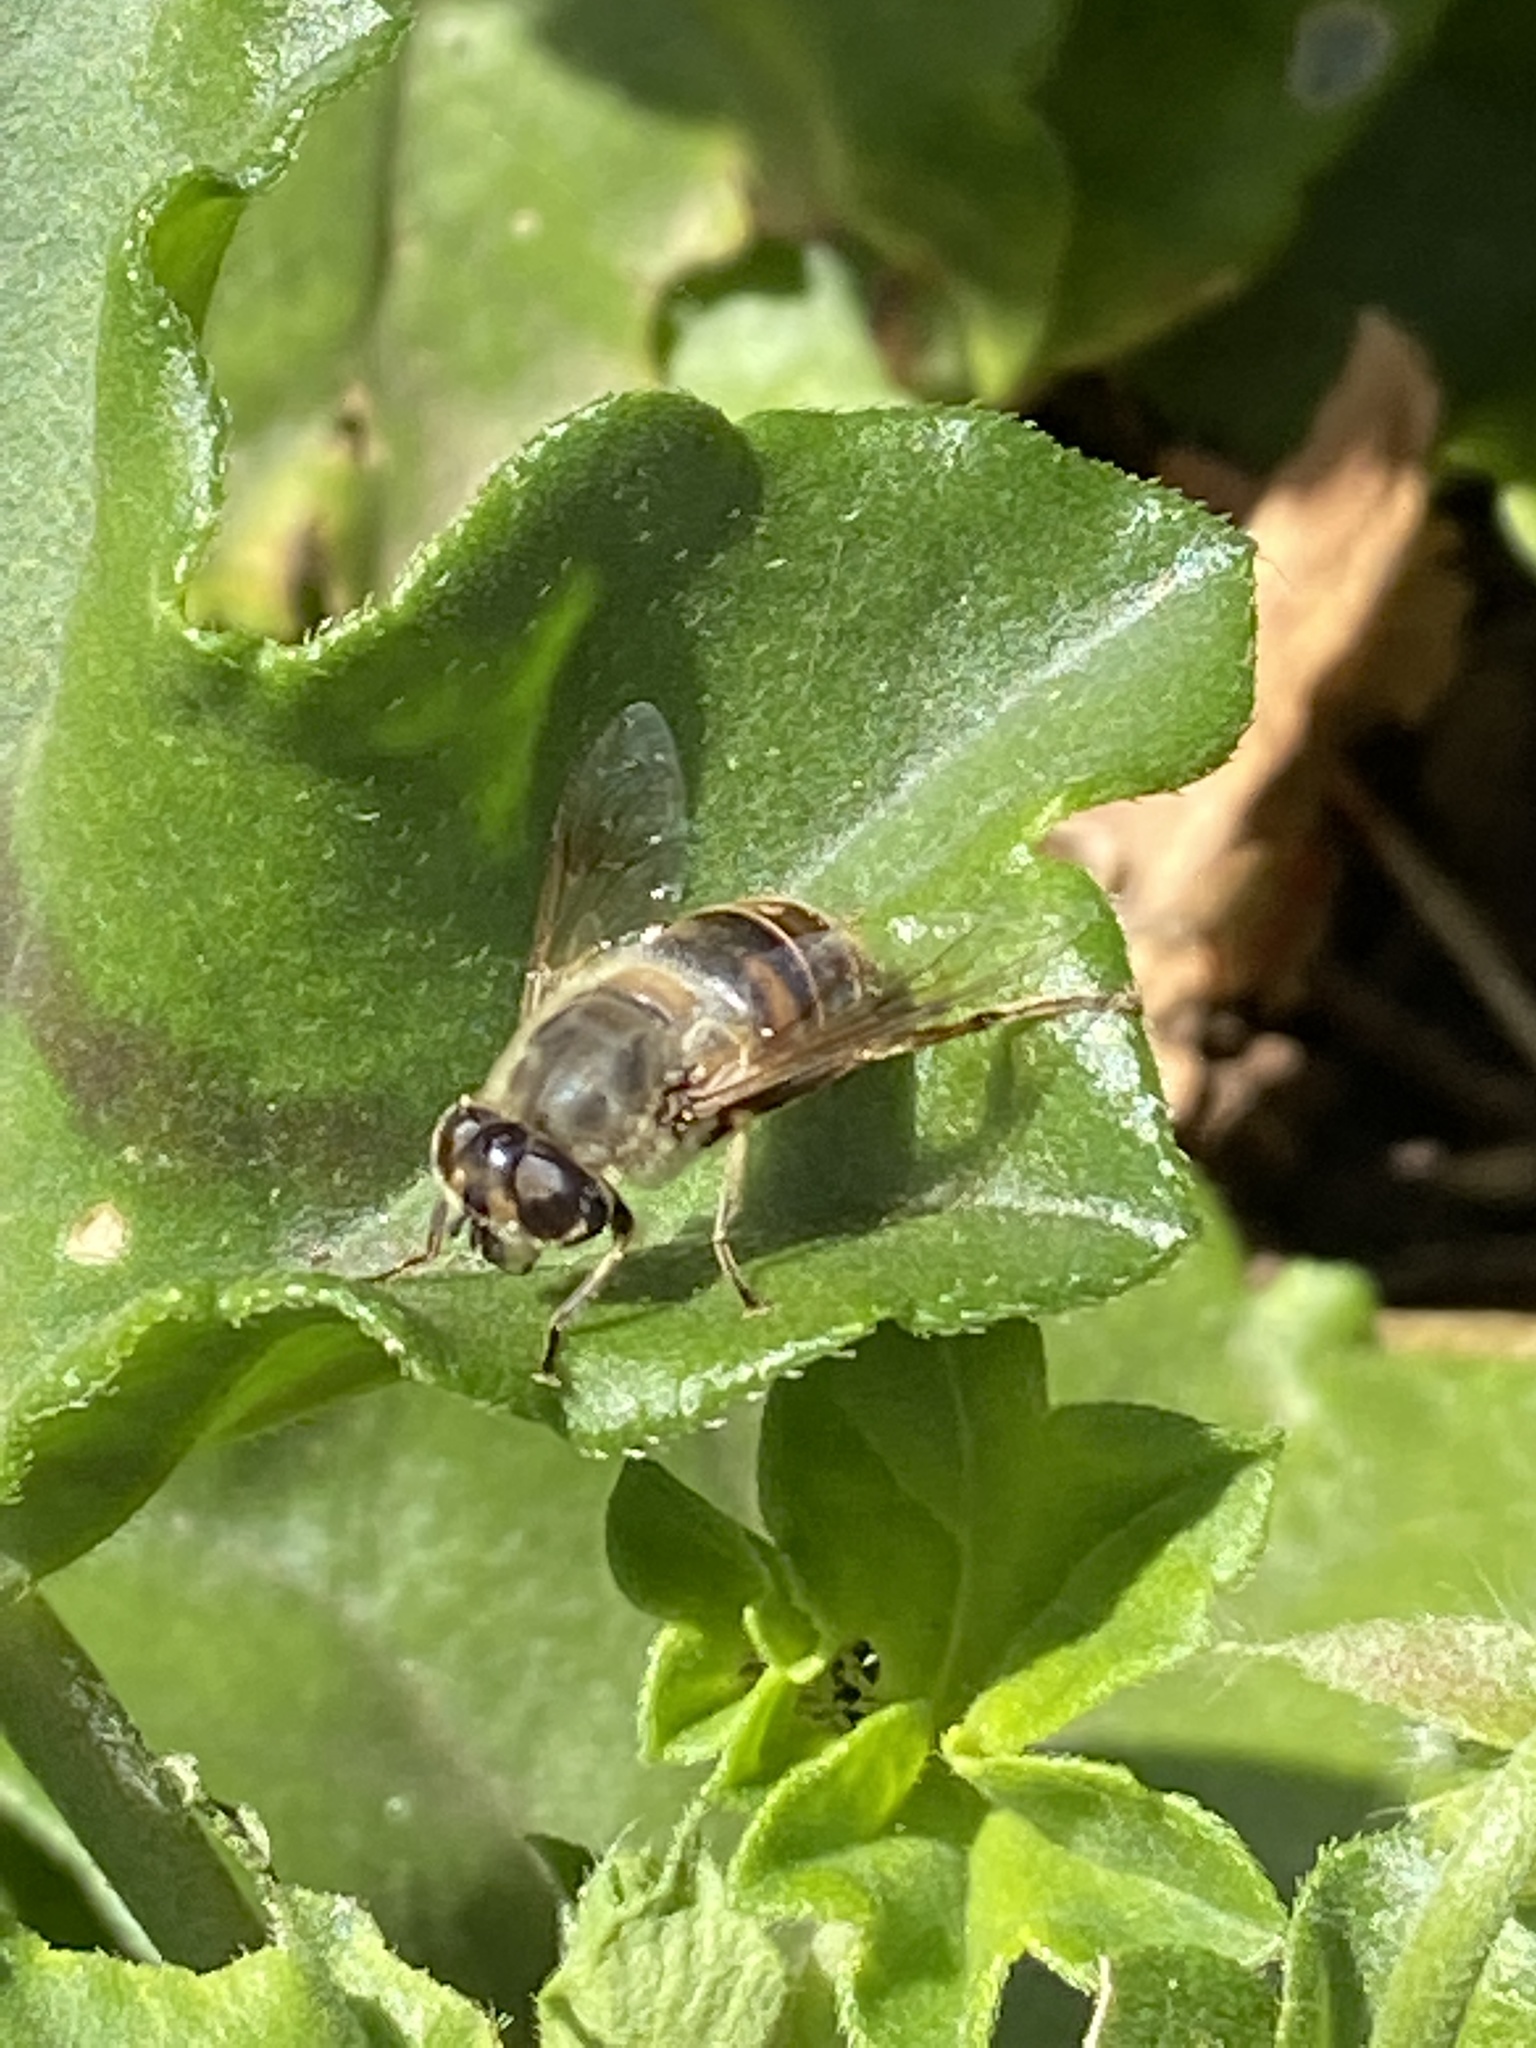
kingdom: Animalia
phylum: Arthropoda
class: Insecta
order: Diptera
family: Syrphidae
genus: Eristalis
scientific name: Eristalis tenax
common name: Drone fly
